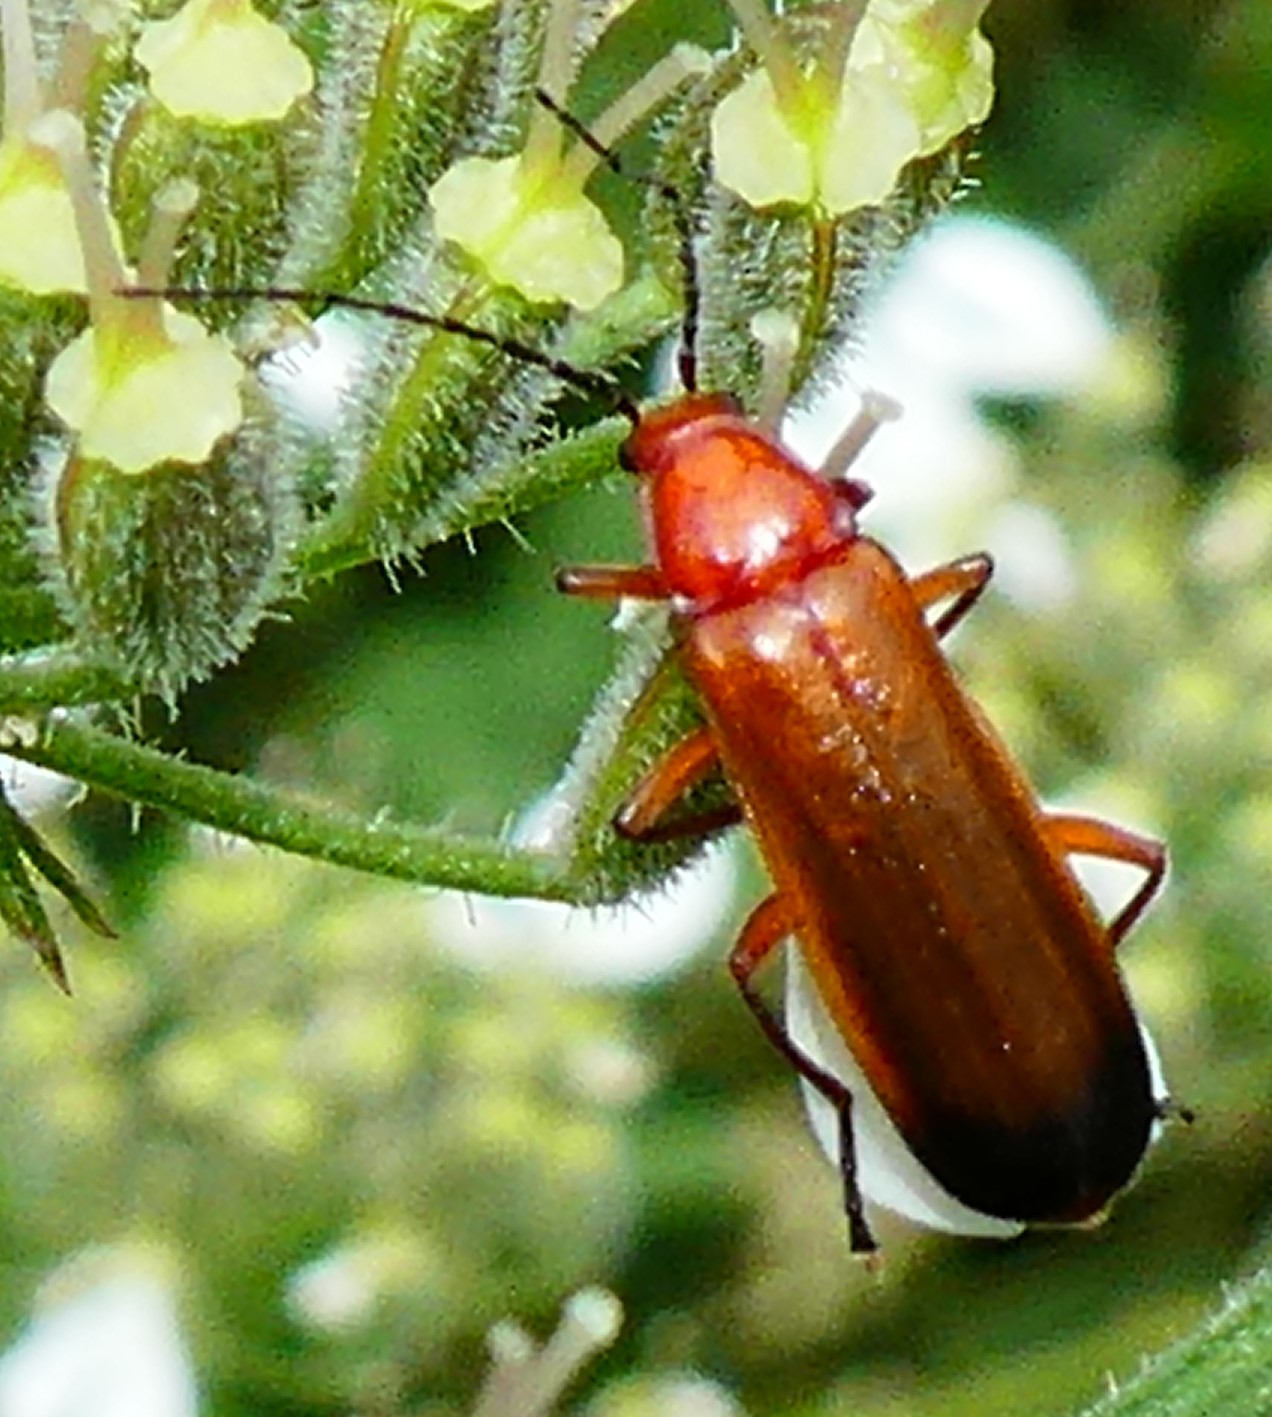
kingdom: Animalia
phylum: Arthropoda
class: Insecta
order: Coleoptera
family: Cantharidae
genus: Rhagonycha
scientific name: Rhagonycha fulva
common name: Common red soldier beetle
